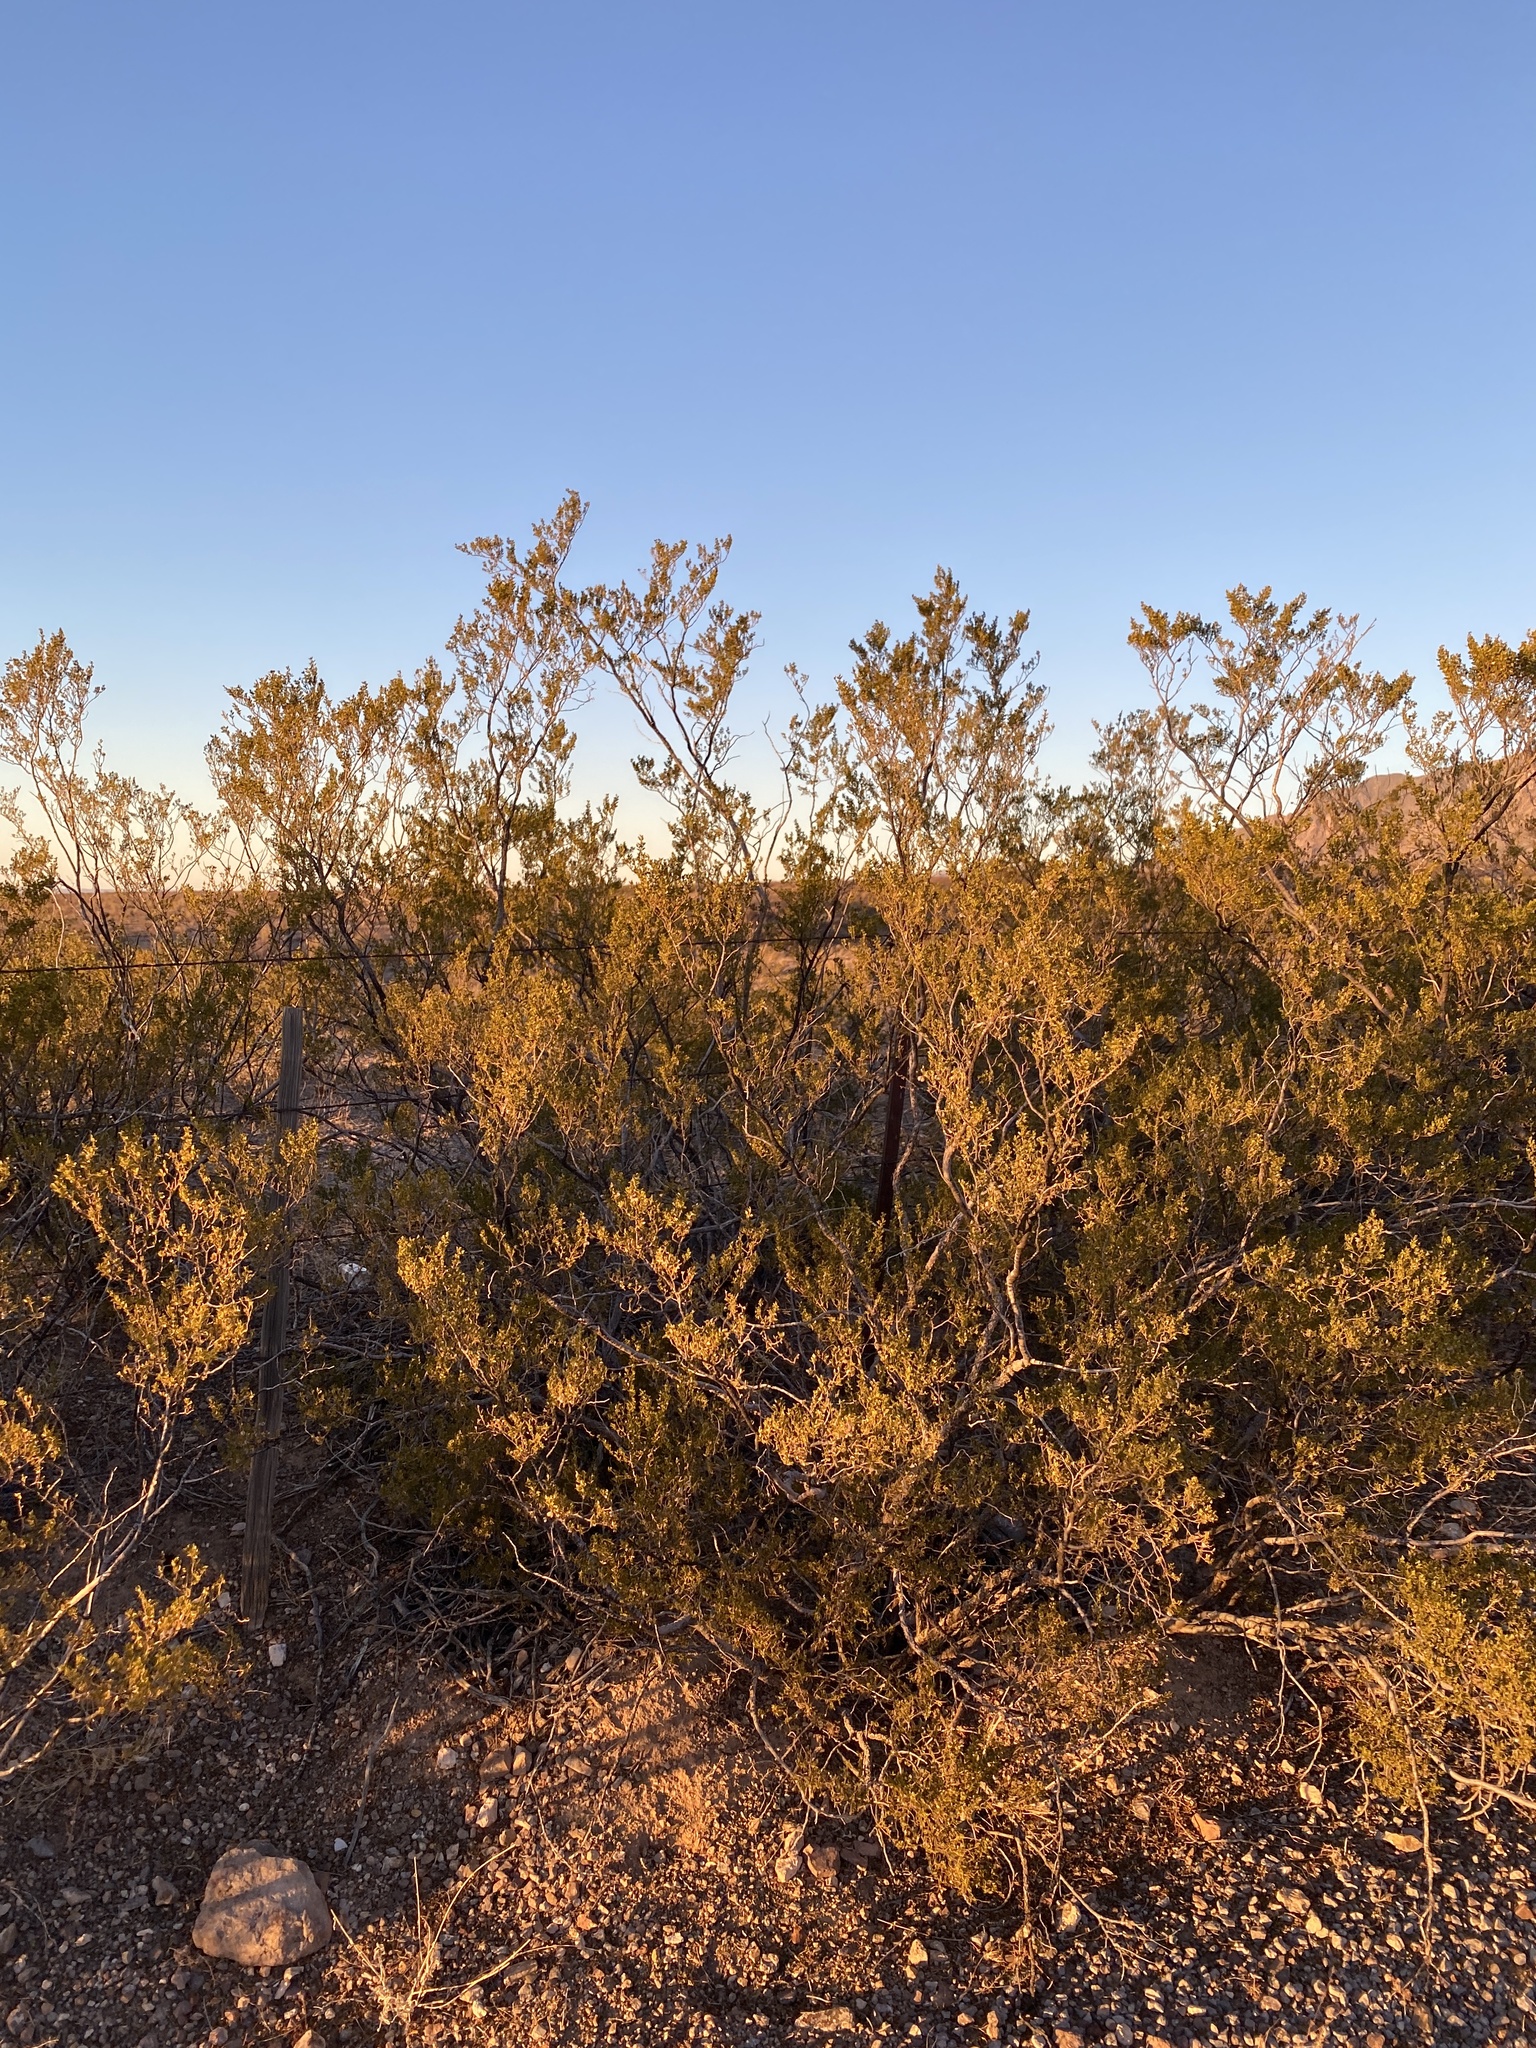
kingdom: Plantae
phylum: Tracheophyta
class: Magnoliopsida
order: Zygophyllales
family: Zygophyllaceae
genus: Larrea
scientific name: Larrea tridentata
